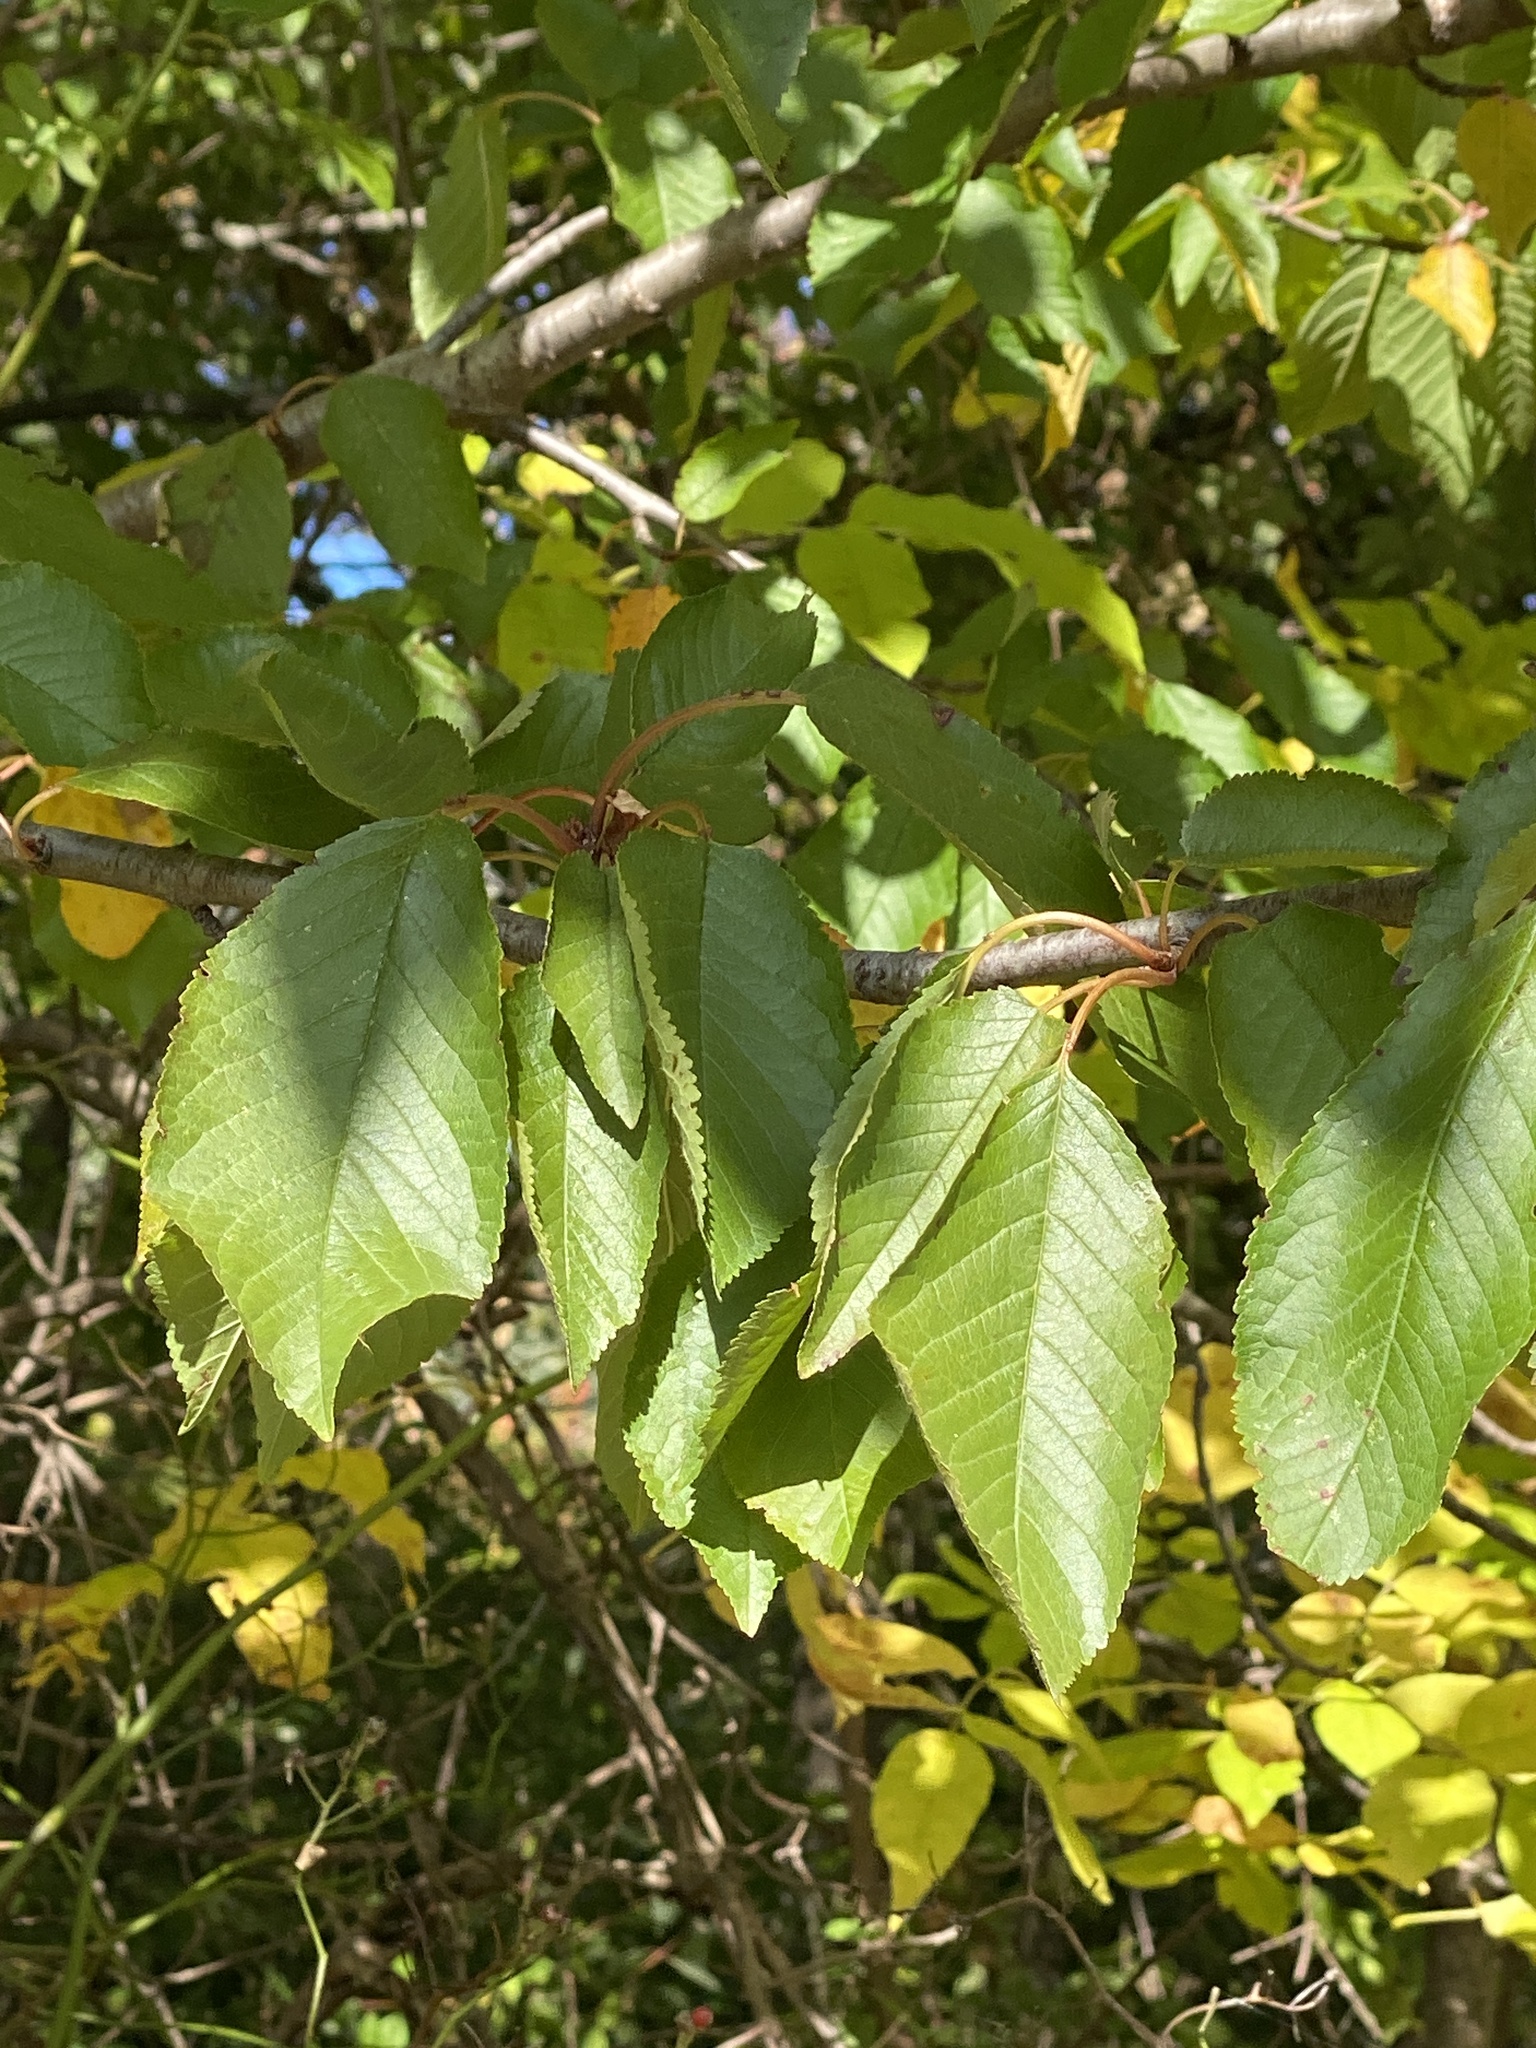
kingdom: Plantae
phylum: Tracheophyta
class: Magnoliopsida
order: Rosales
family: Rosaceae
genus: Prunus
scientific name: Prunus avium
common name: Sweet cherry
